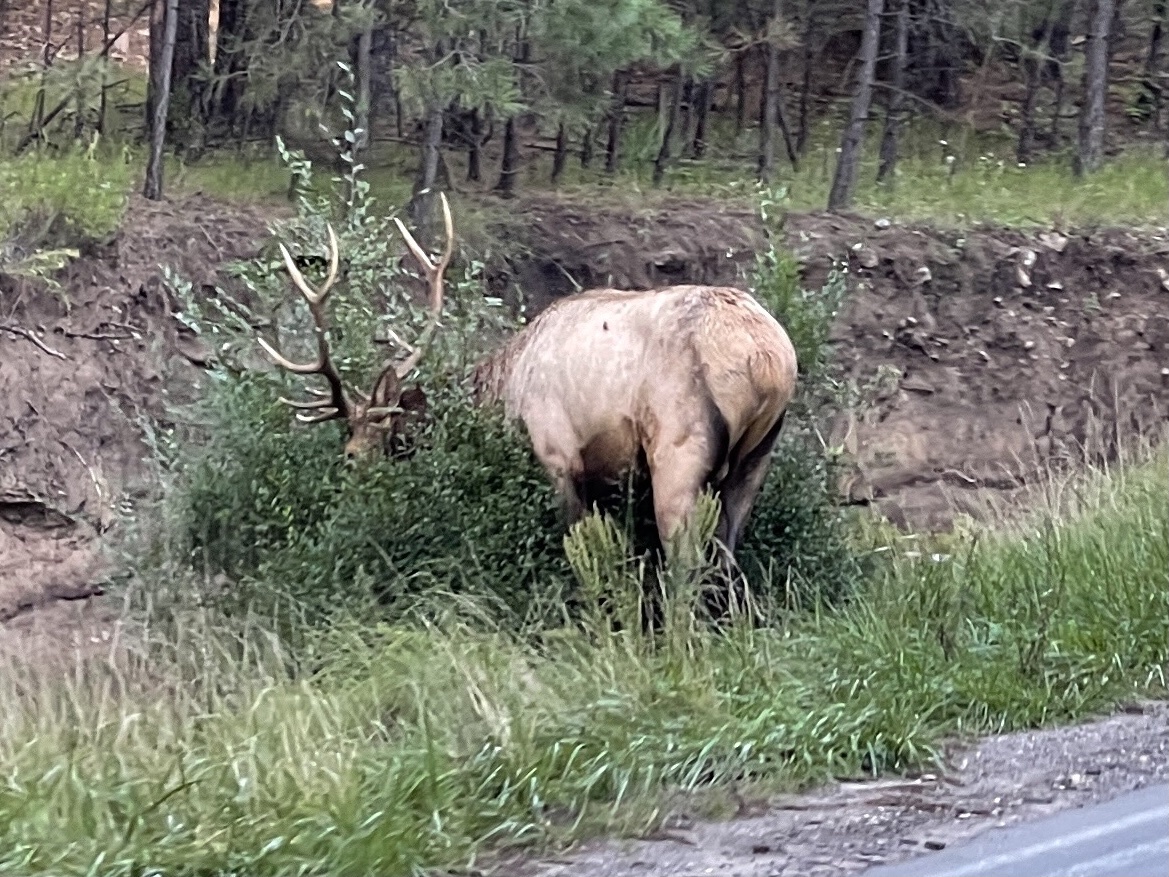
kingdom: Animalia
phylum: Chordata
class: Mammalia
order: Artiodactyla
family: Cervidae
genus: Cervus
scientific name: Cervus elaphus
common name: Red deer
